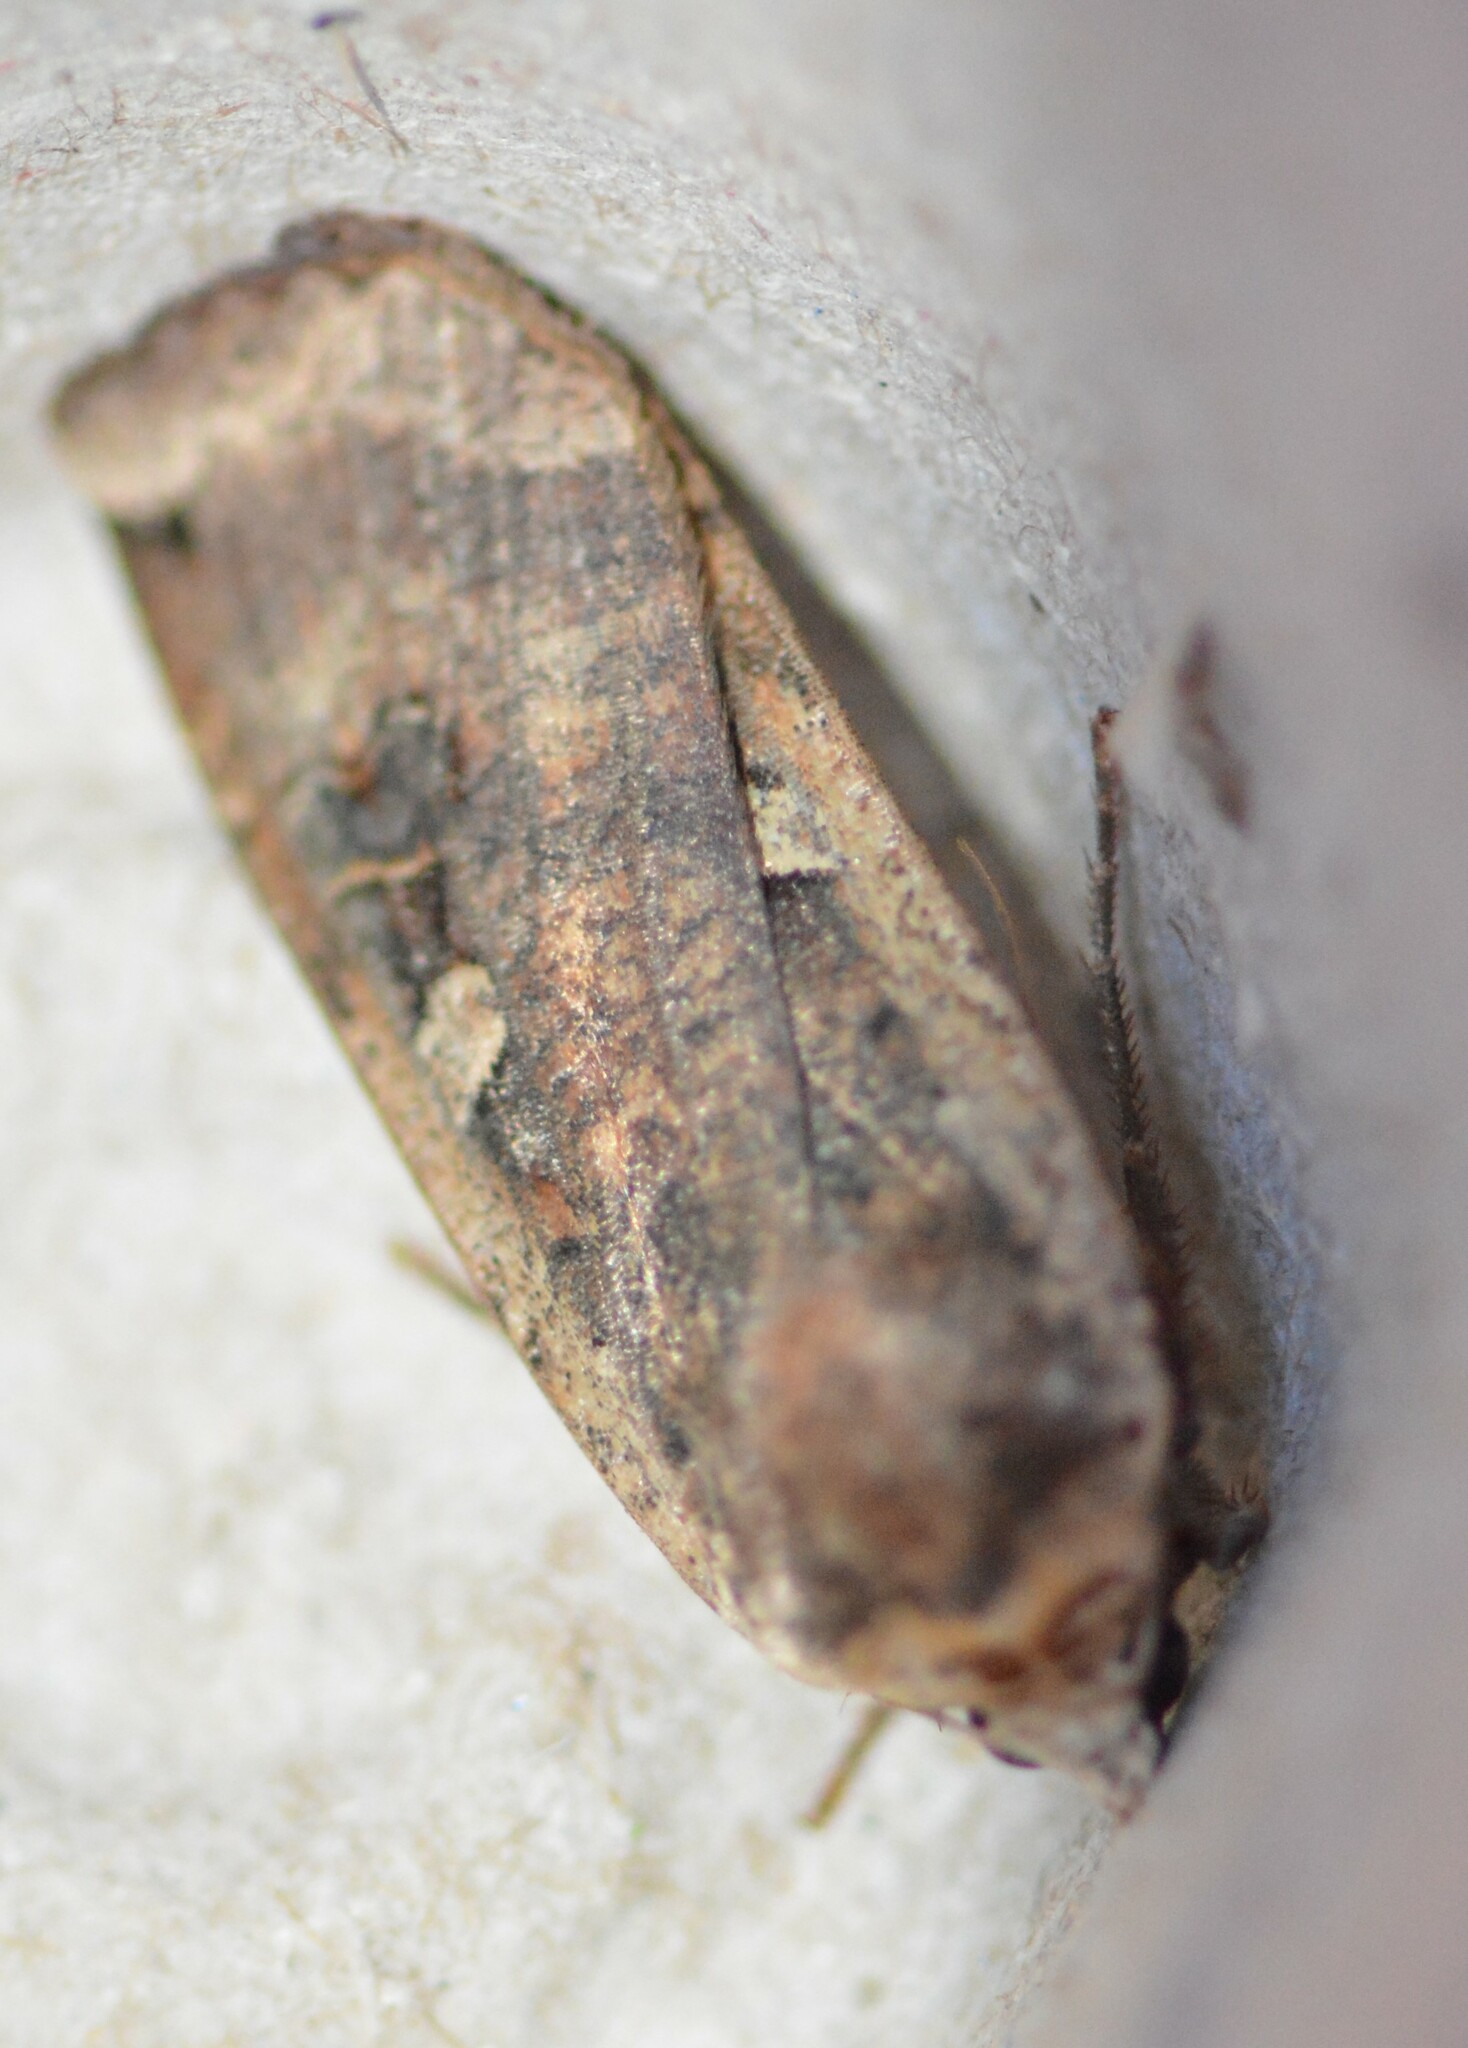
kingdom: Animalia
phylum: Arthropoda
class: Insecta
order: Lepidoptera
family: Noctuidae
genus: Noctua
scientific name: Noctua pronuba
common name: Large yellow underwing
